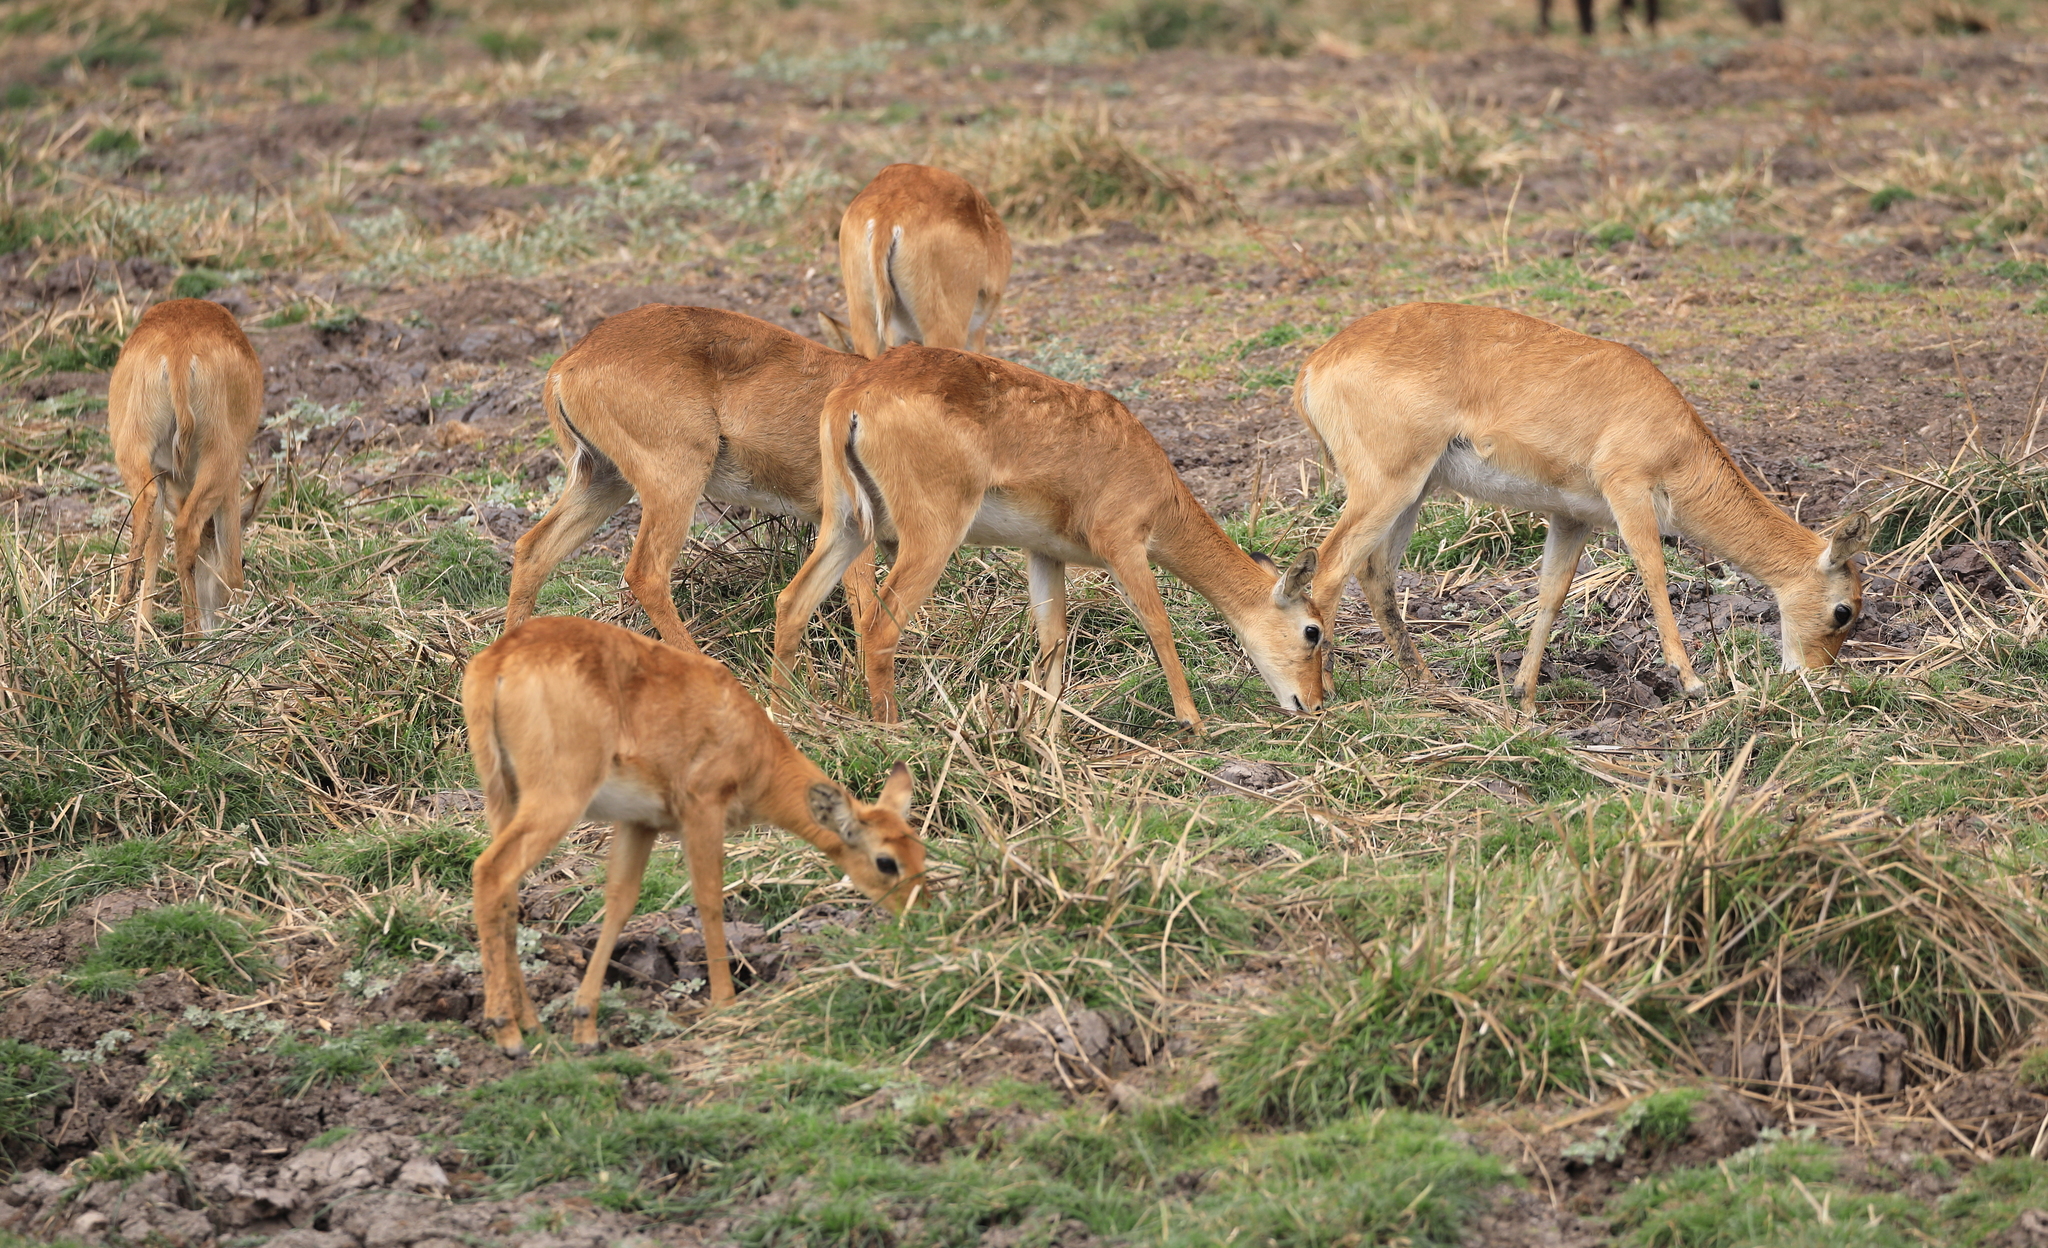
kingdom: Animalia
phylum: Chordata
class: Mammalia
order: Artiodactyla
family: Bovidae
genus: Kobus
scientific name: Kobus vardonii
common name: Puku
